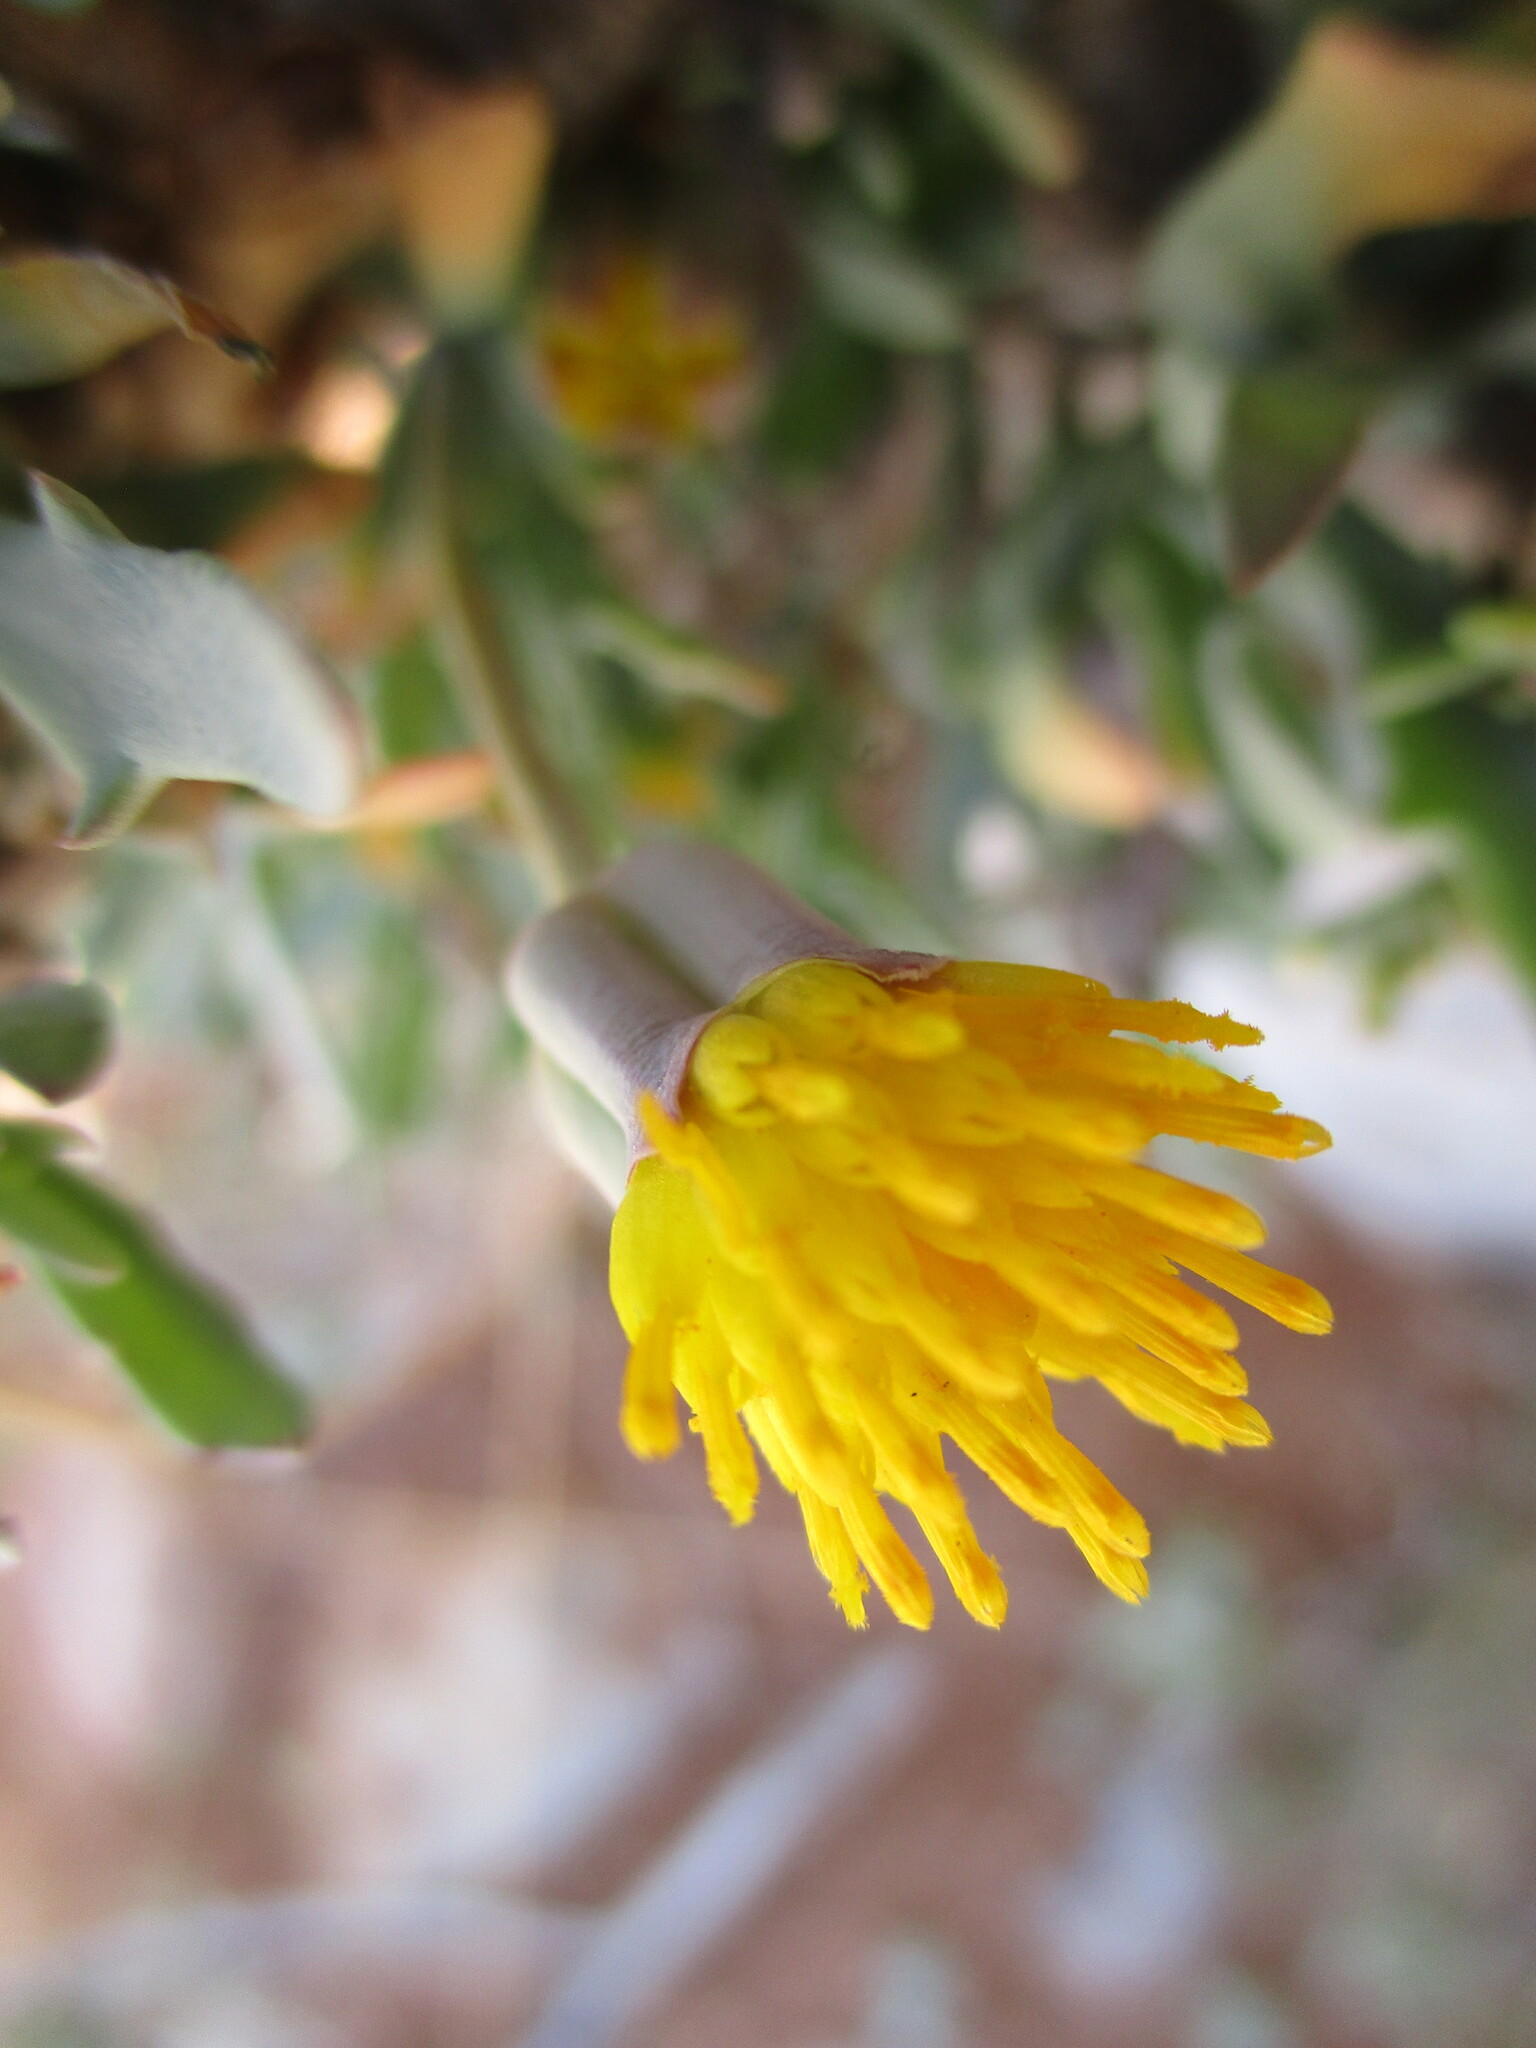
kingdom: Plantae
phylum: Tracheophyta
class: Magnoliopsida
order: Asterales
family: Asteraceae
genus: Othonna
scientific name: Othonna lasiocarpa
